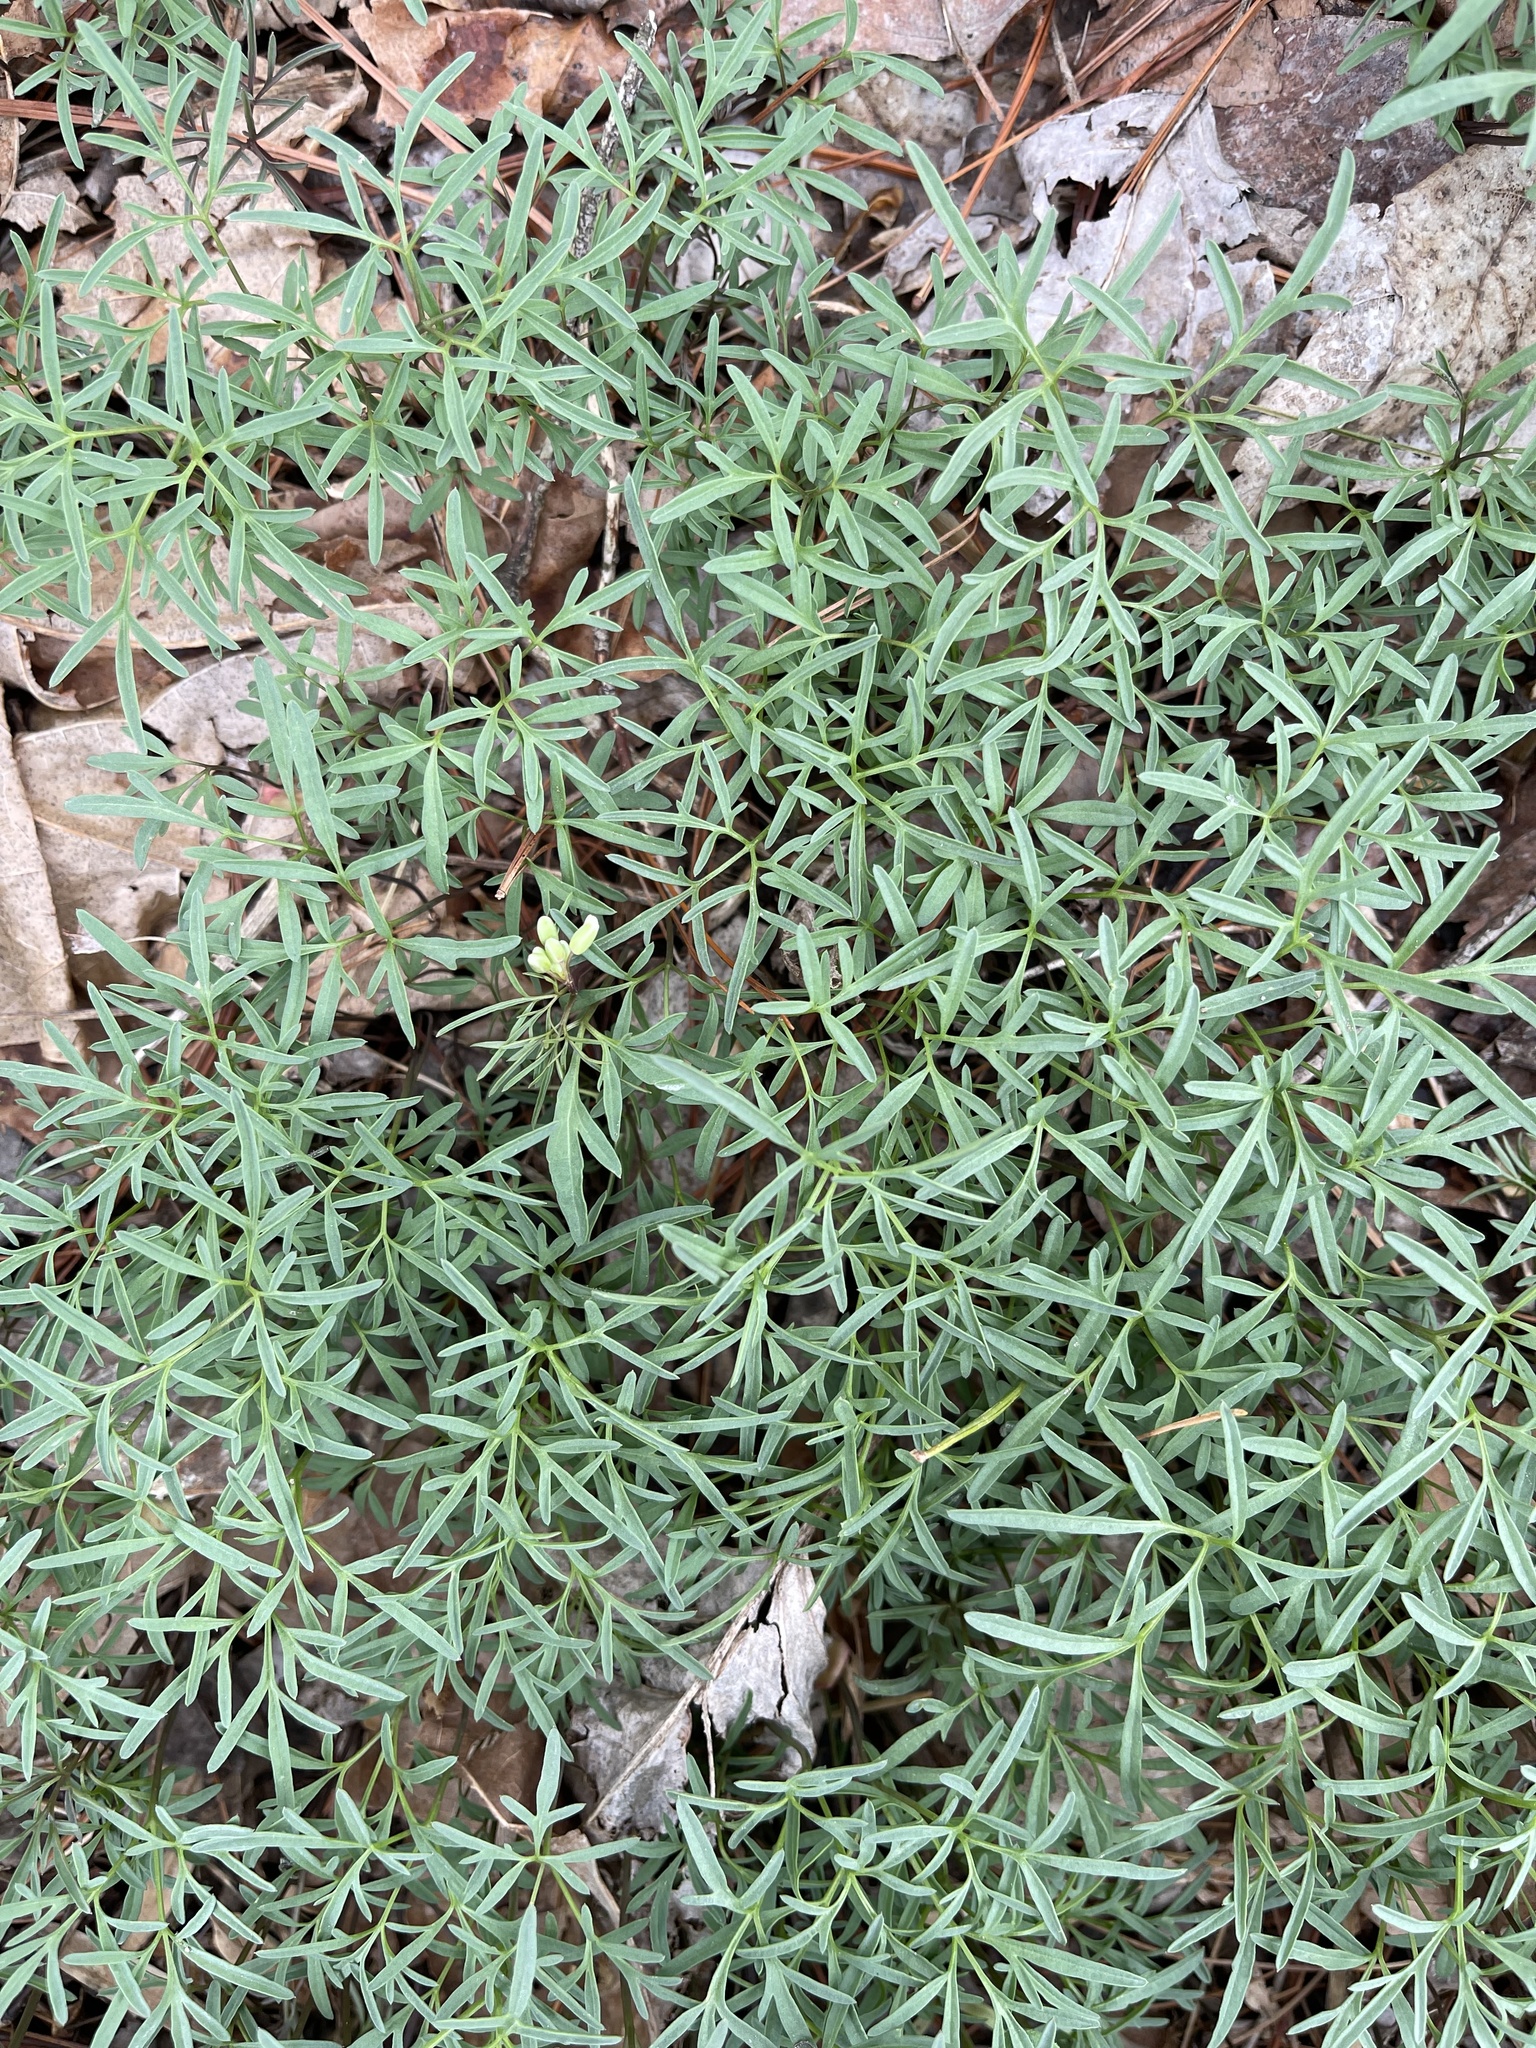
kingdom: Plantae
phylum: Tracheophyta
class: Magnoliopsida
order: Brassicales
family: Brassicaceae
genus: Cardamine
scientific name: Cardamine dissecta
